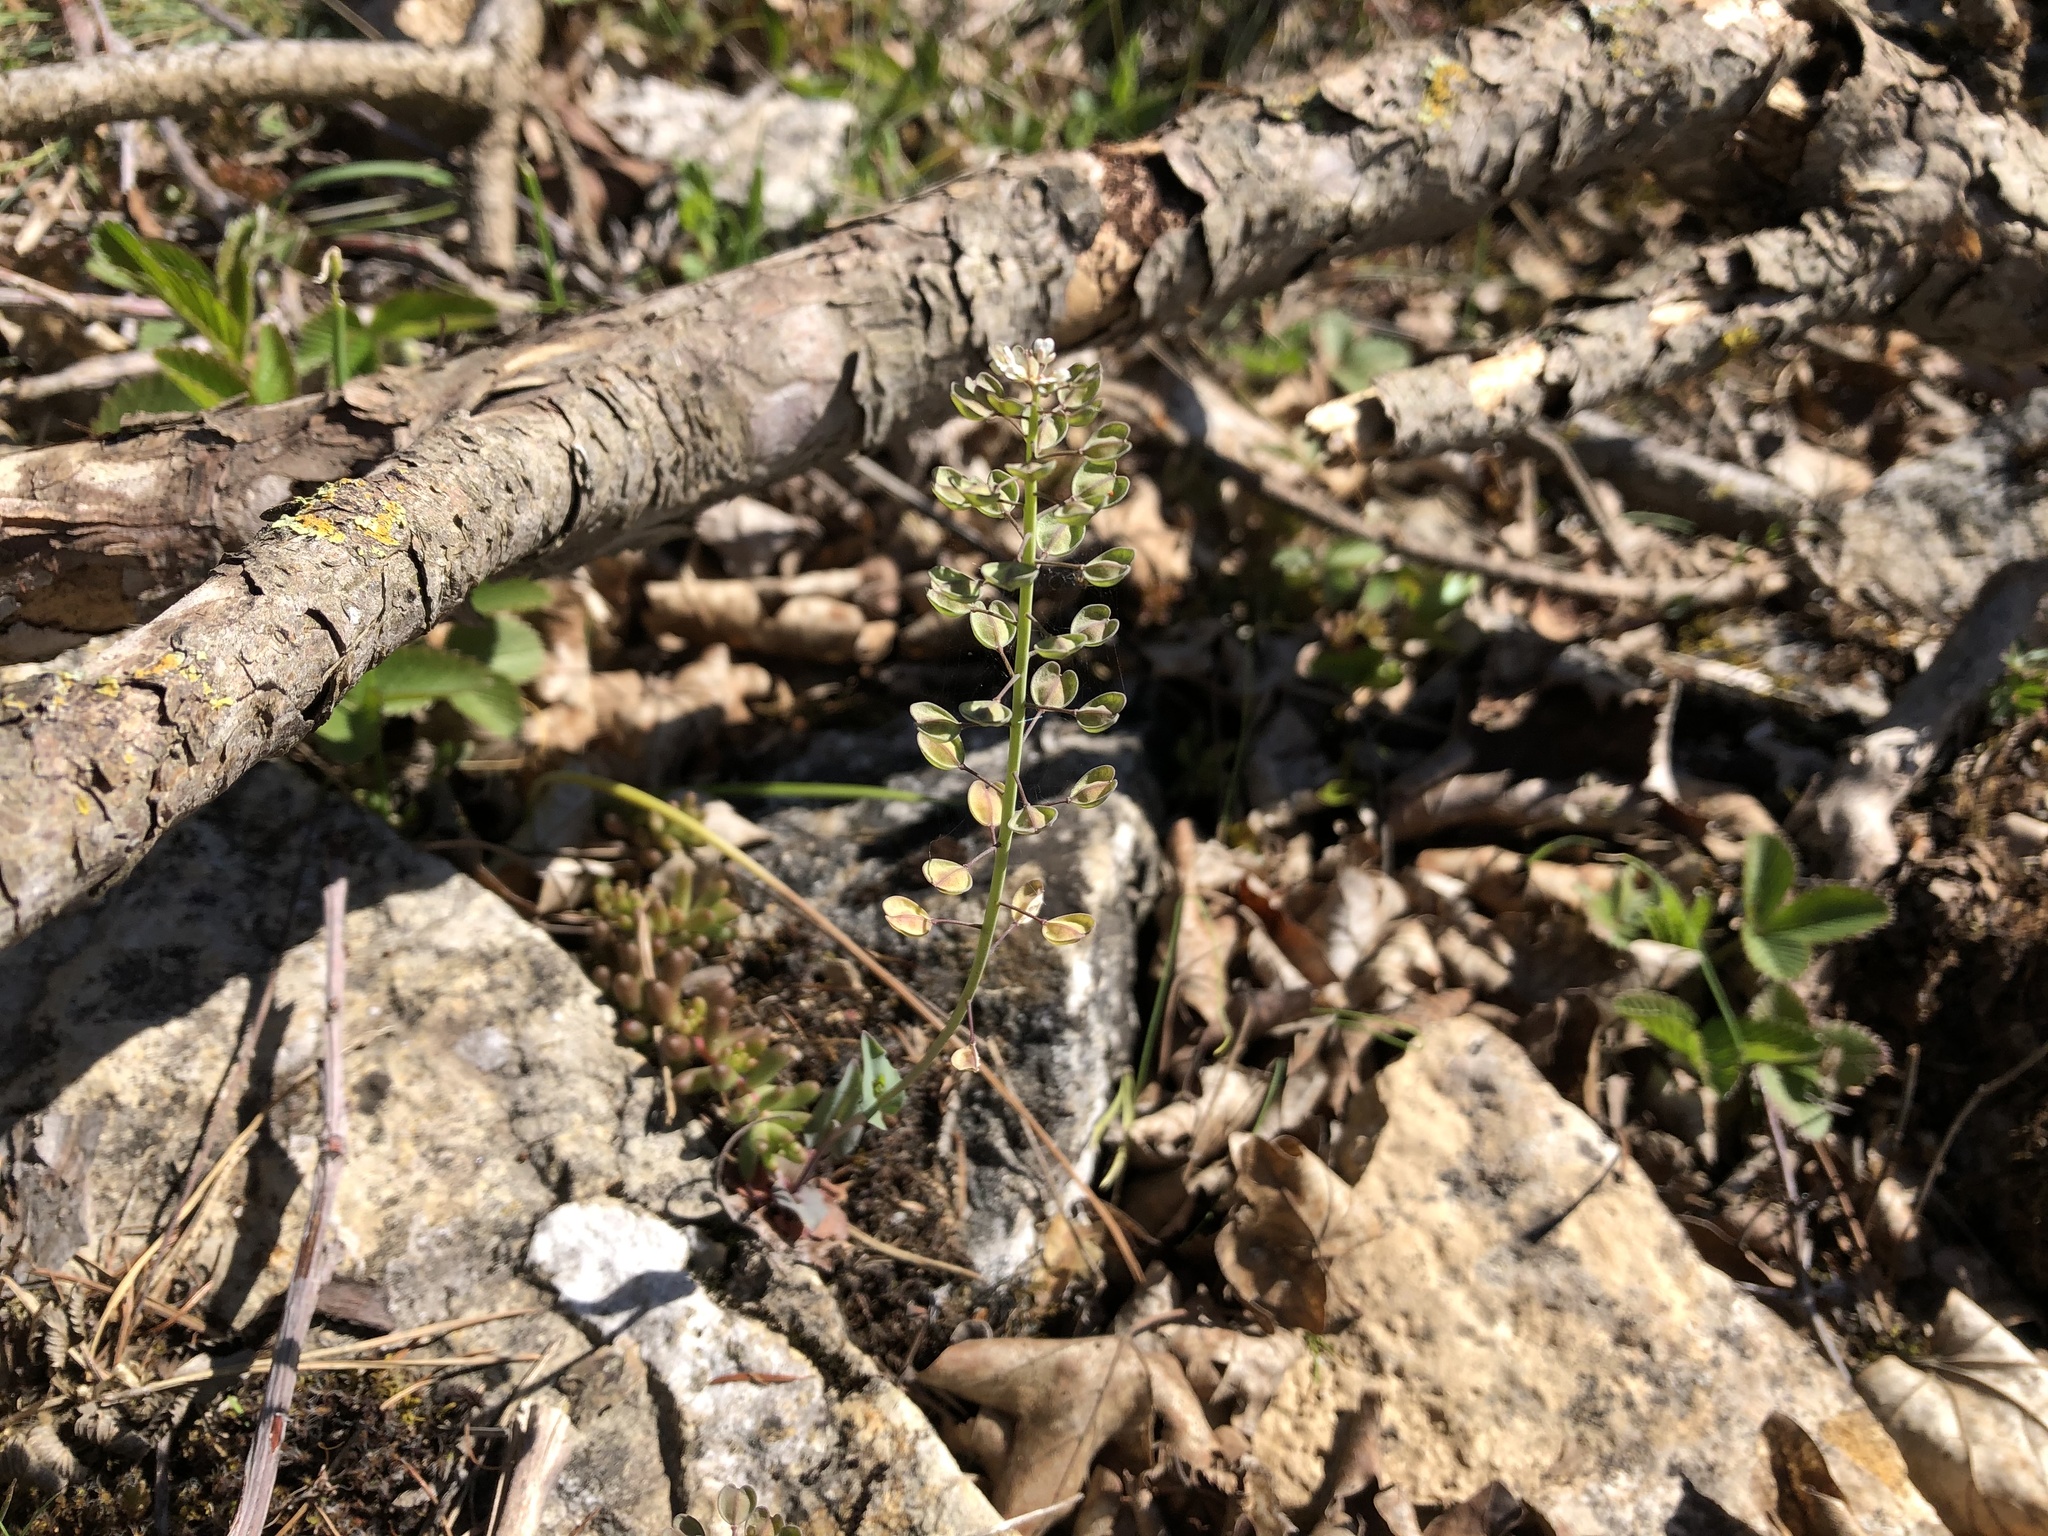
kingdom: Plantae
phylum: Tracheophyta
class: Magnoliopsida
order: Brassicales
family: Brassicaceae
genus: Noccaea
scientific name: Noccaea perfoliata
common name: Perfoliate pennycress
